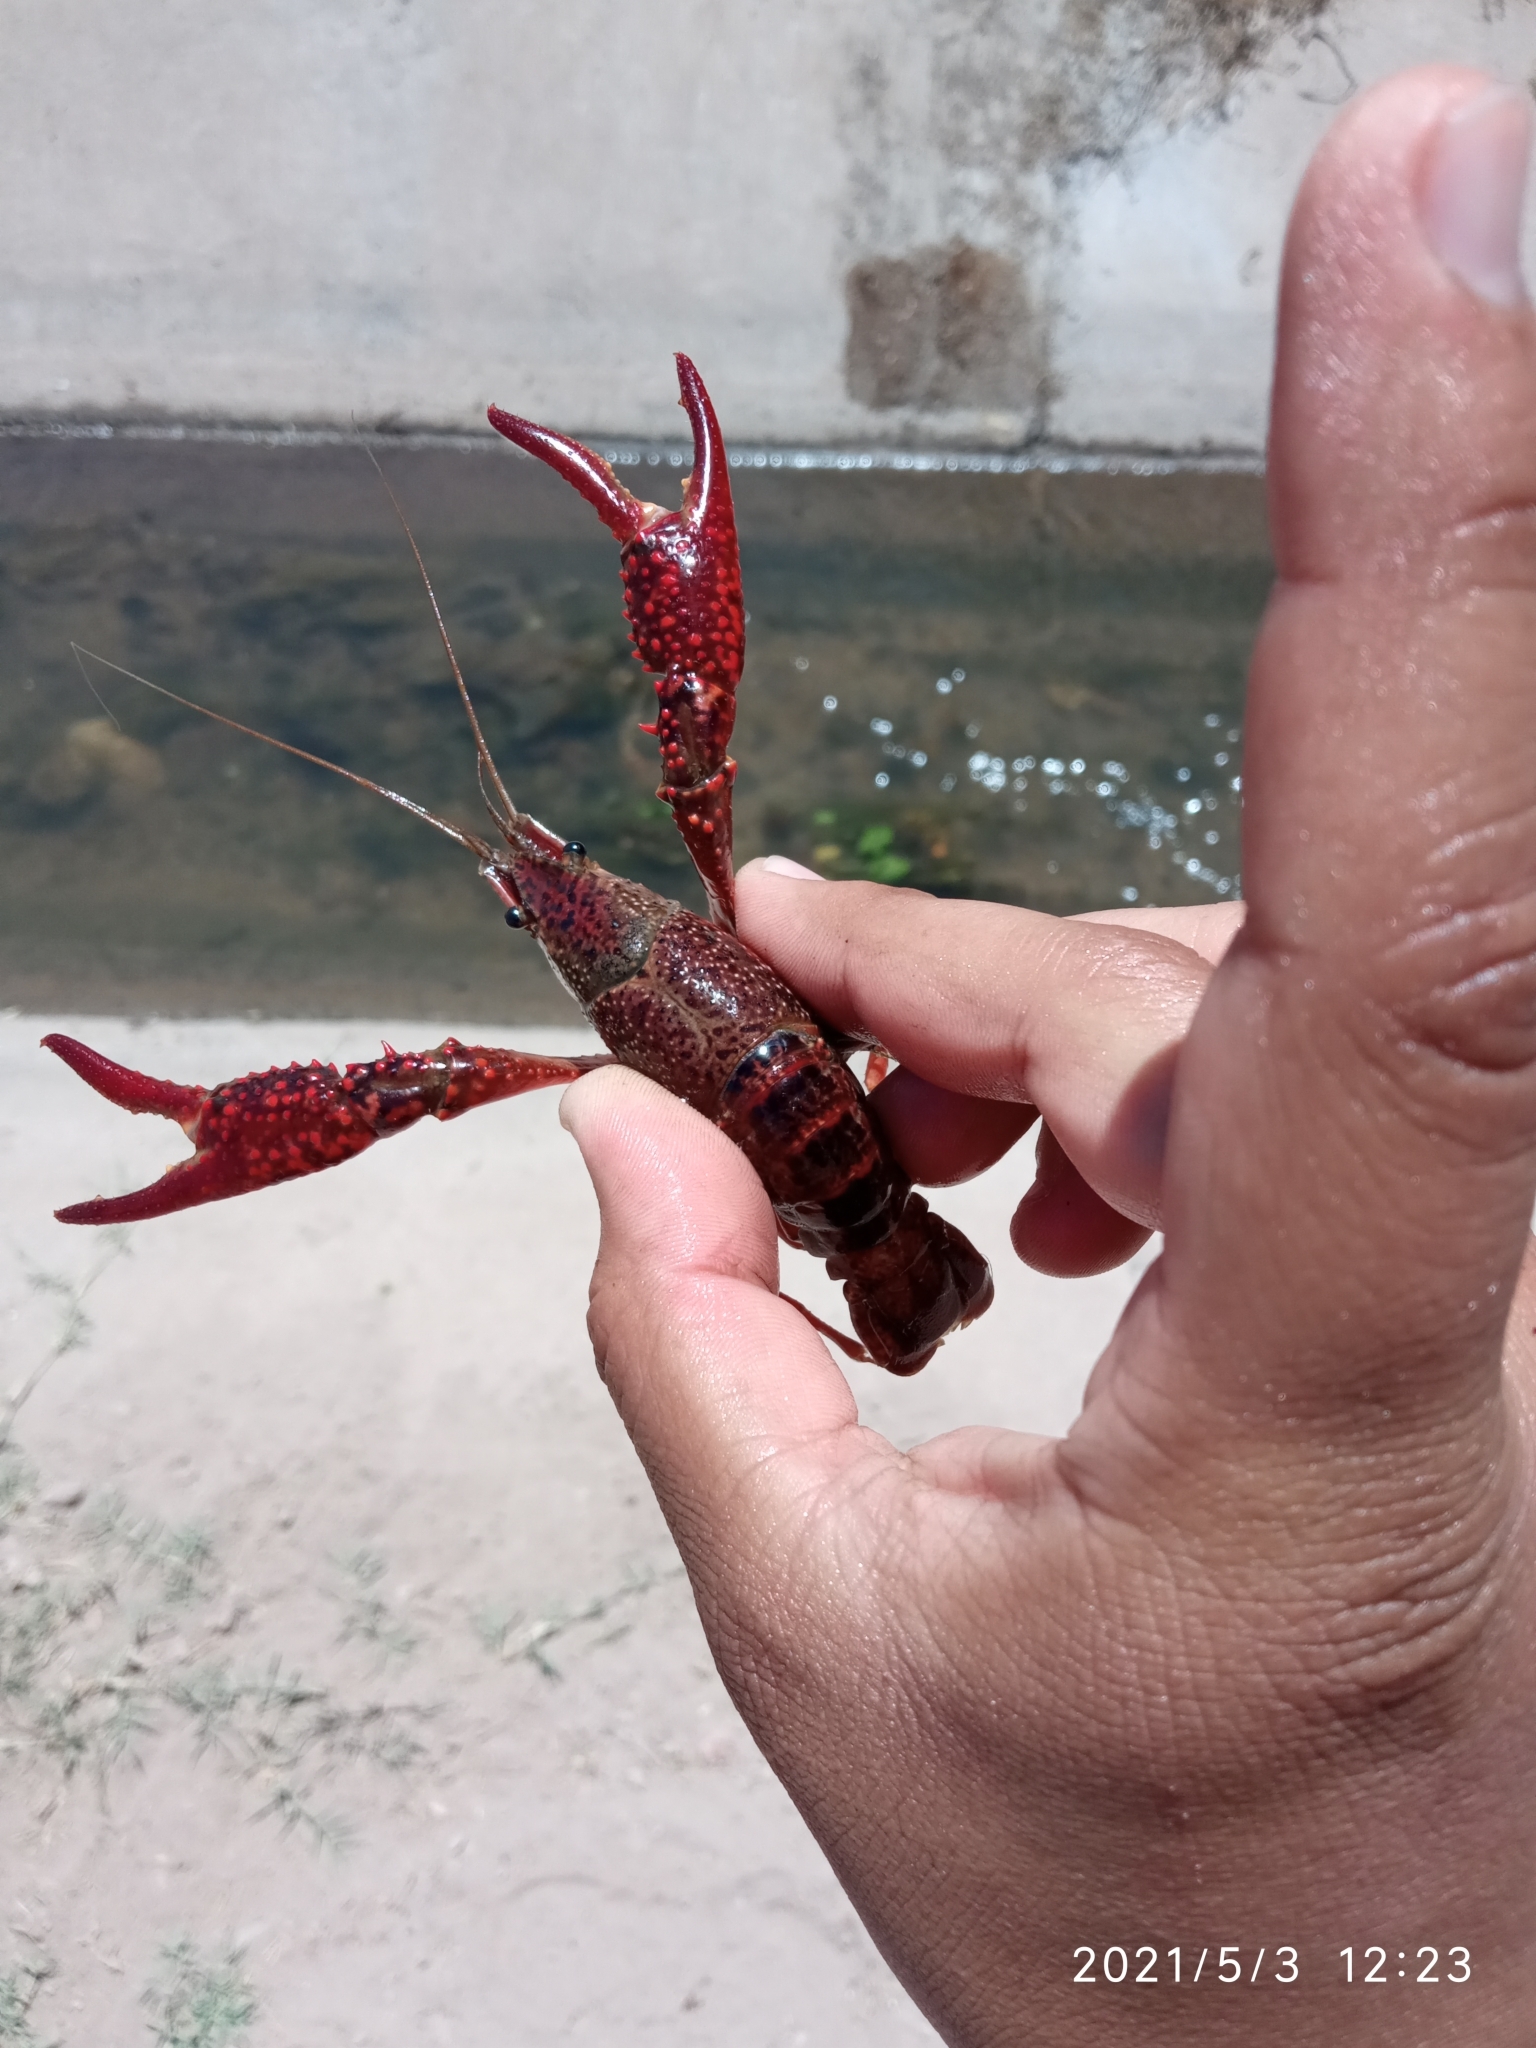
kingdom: Animalia
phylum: Arthropoda
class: Malacostraca
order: Decapoda
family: Cambaridae
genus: Procambarus
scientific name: Procambarus clarkii
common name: Red swamp crayfish
